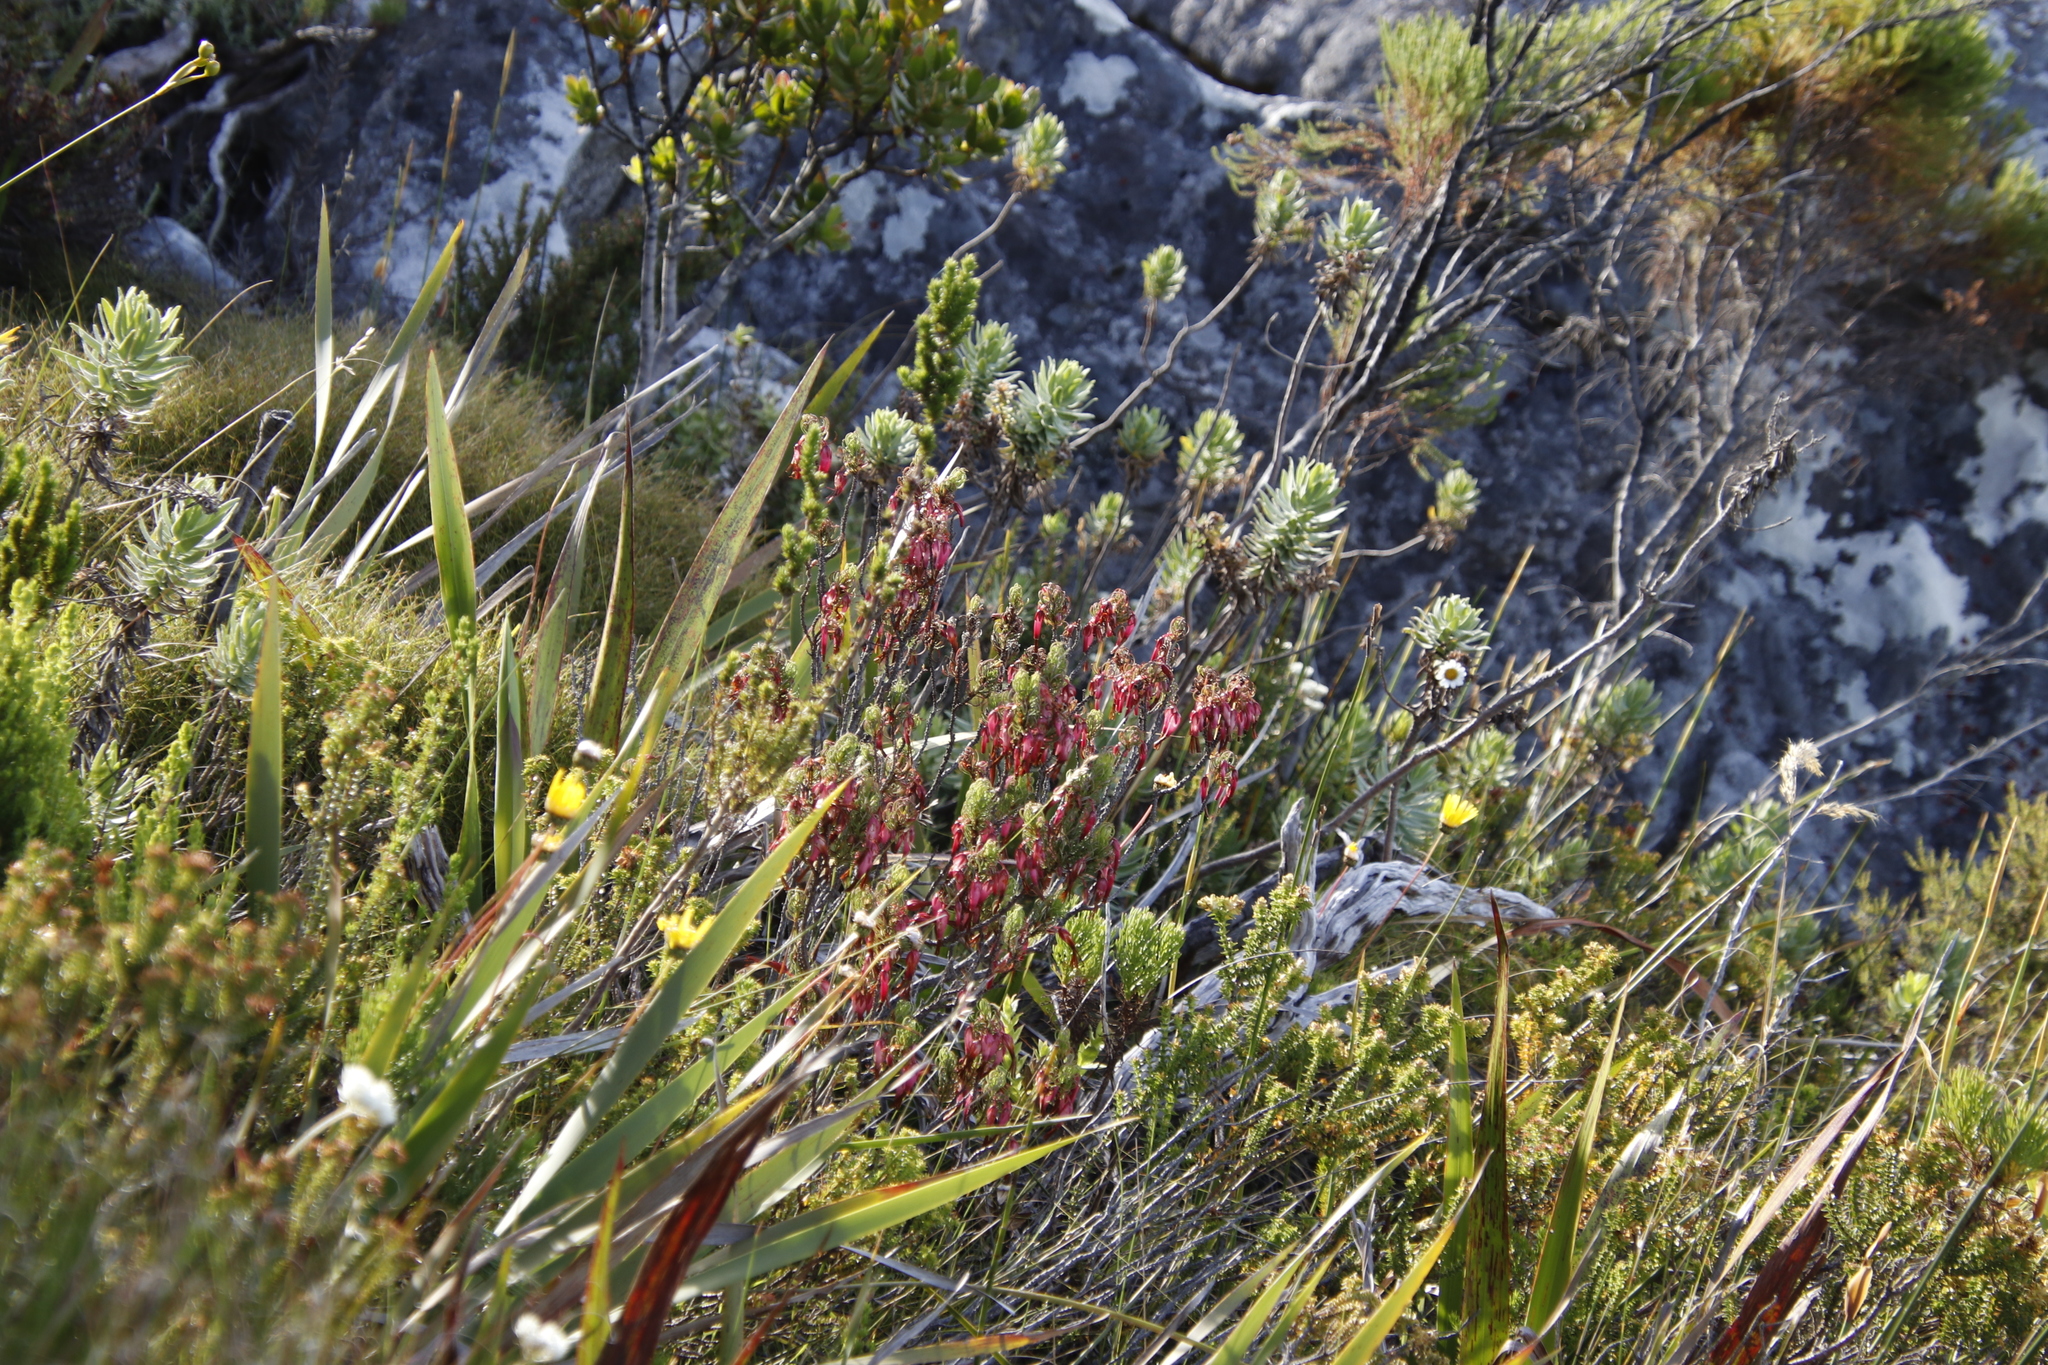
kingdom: Plantae
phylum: Tracheophyta
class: Magnoliopsida
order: Ericales
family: Ericaceae
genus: Erica
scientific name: Erica plukenetii
